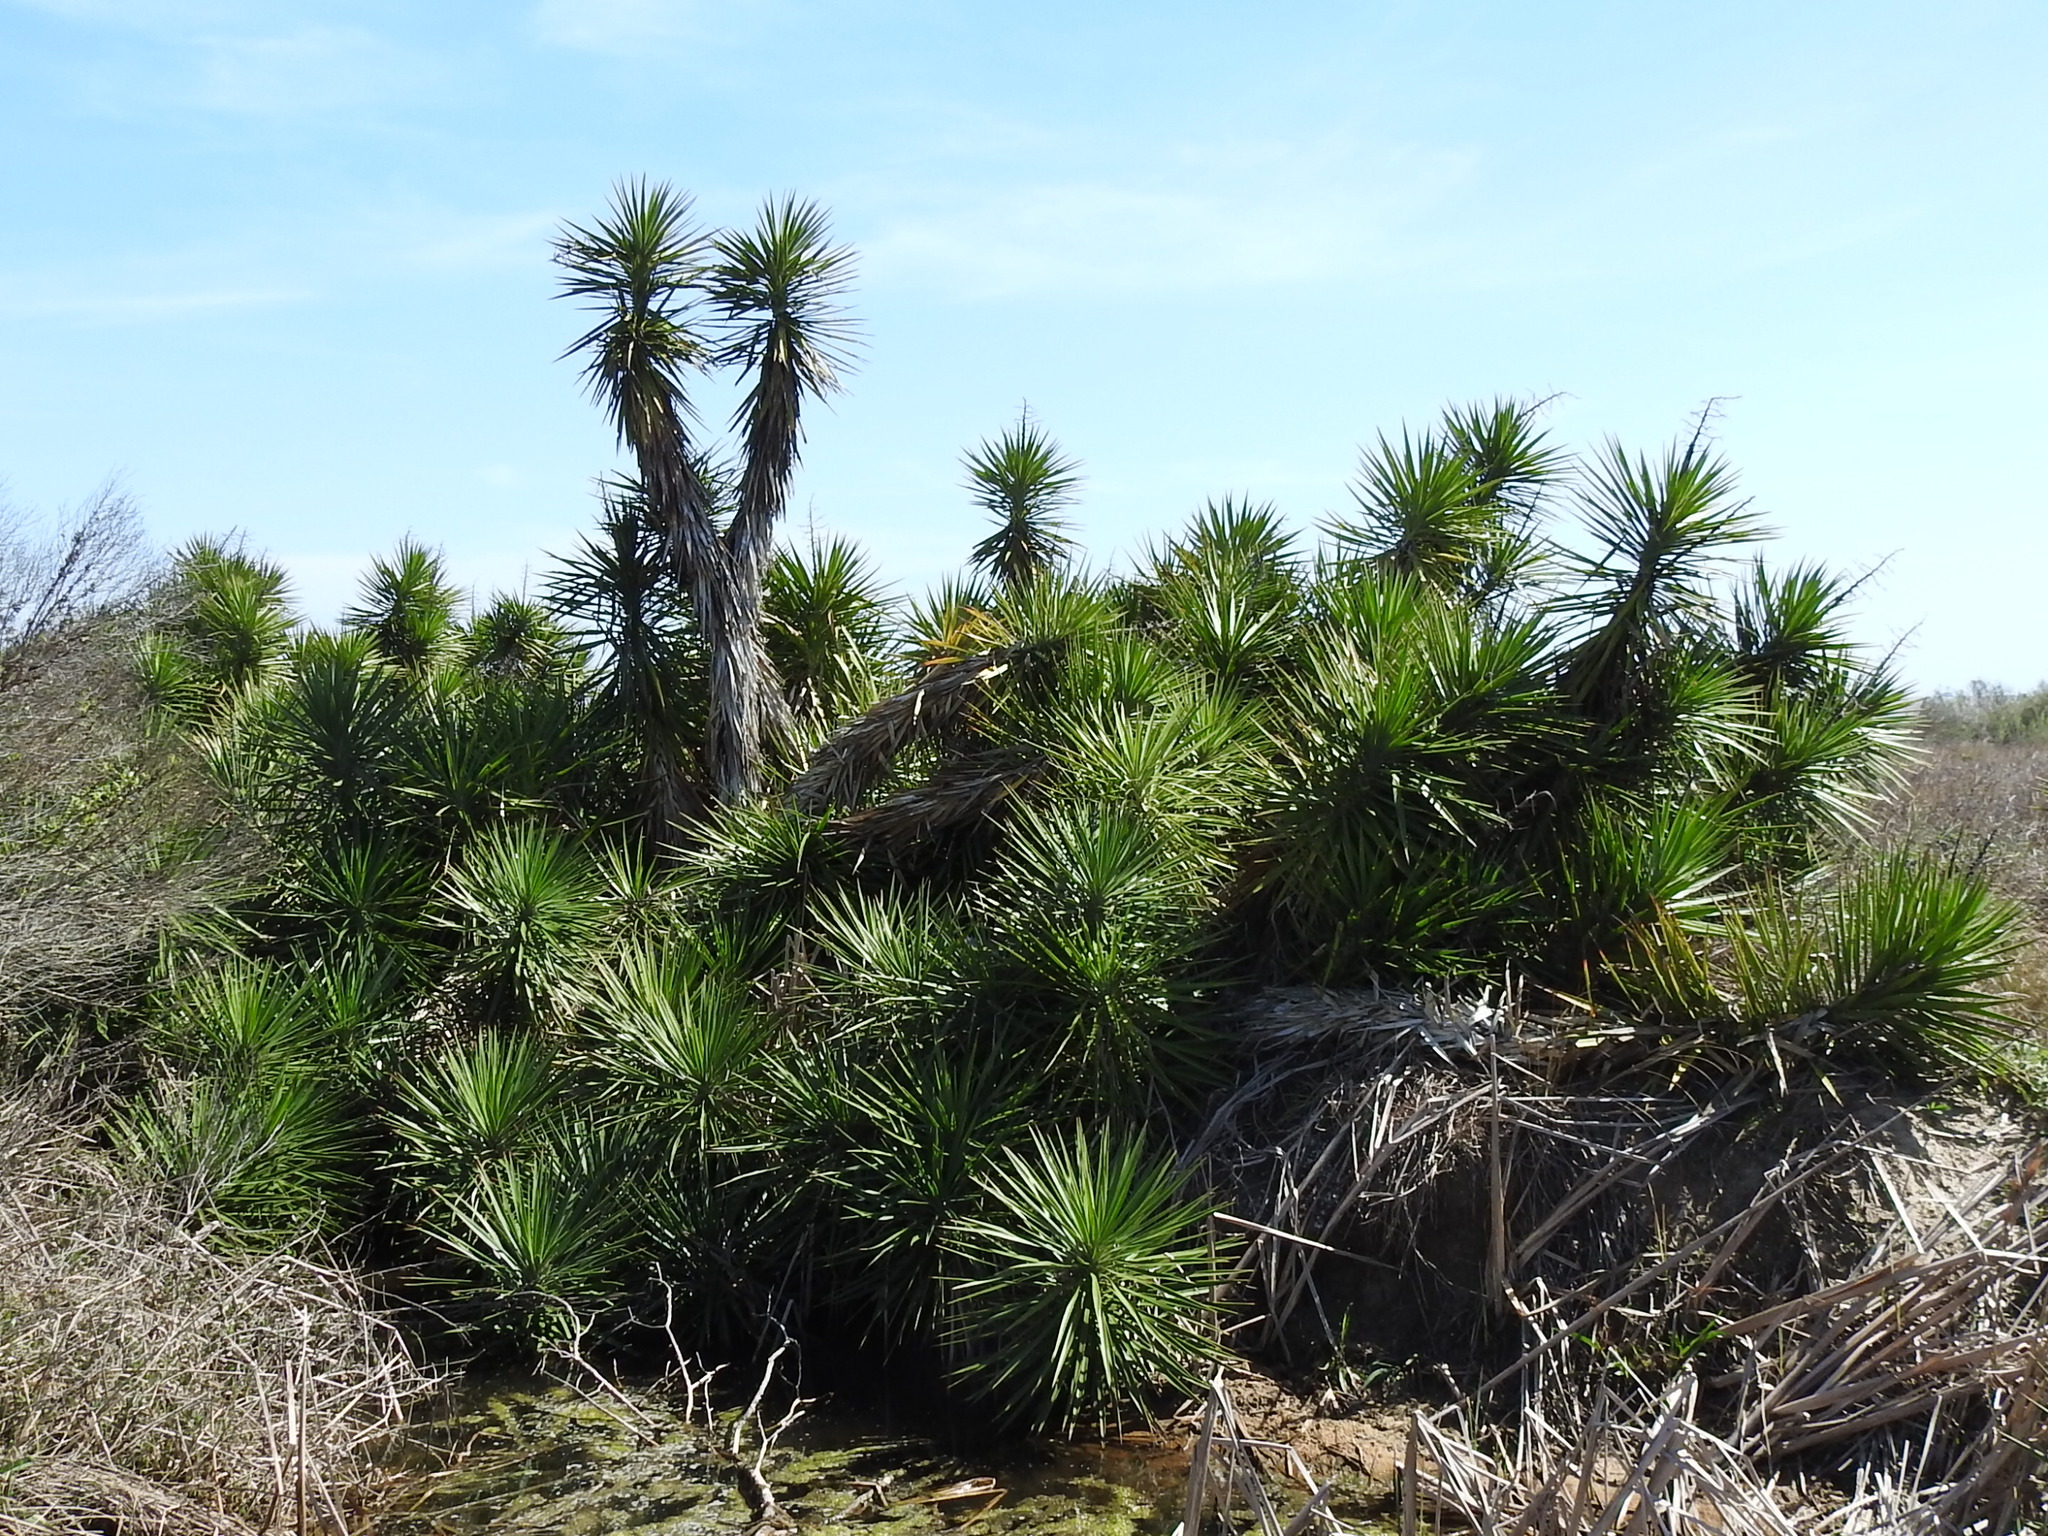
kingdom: Plantae
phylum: Tracheophyta
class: Liliopsida
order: Asparagales
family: Asparagaceae
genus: Yucca
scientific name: Yucca aloifolia
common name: Aloe yucca
